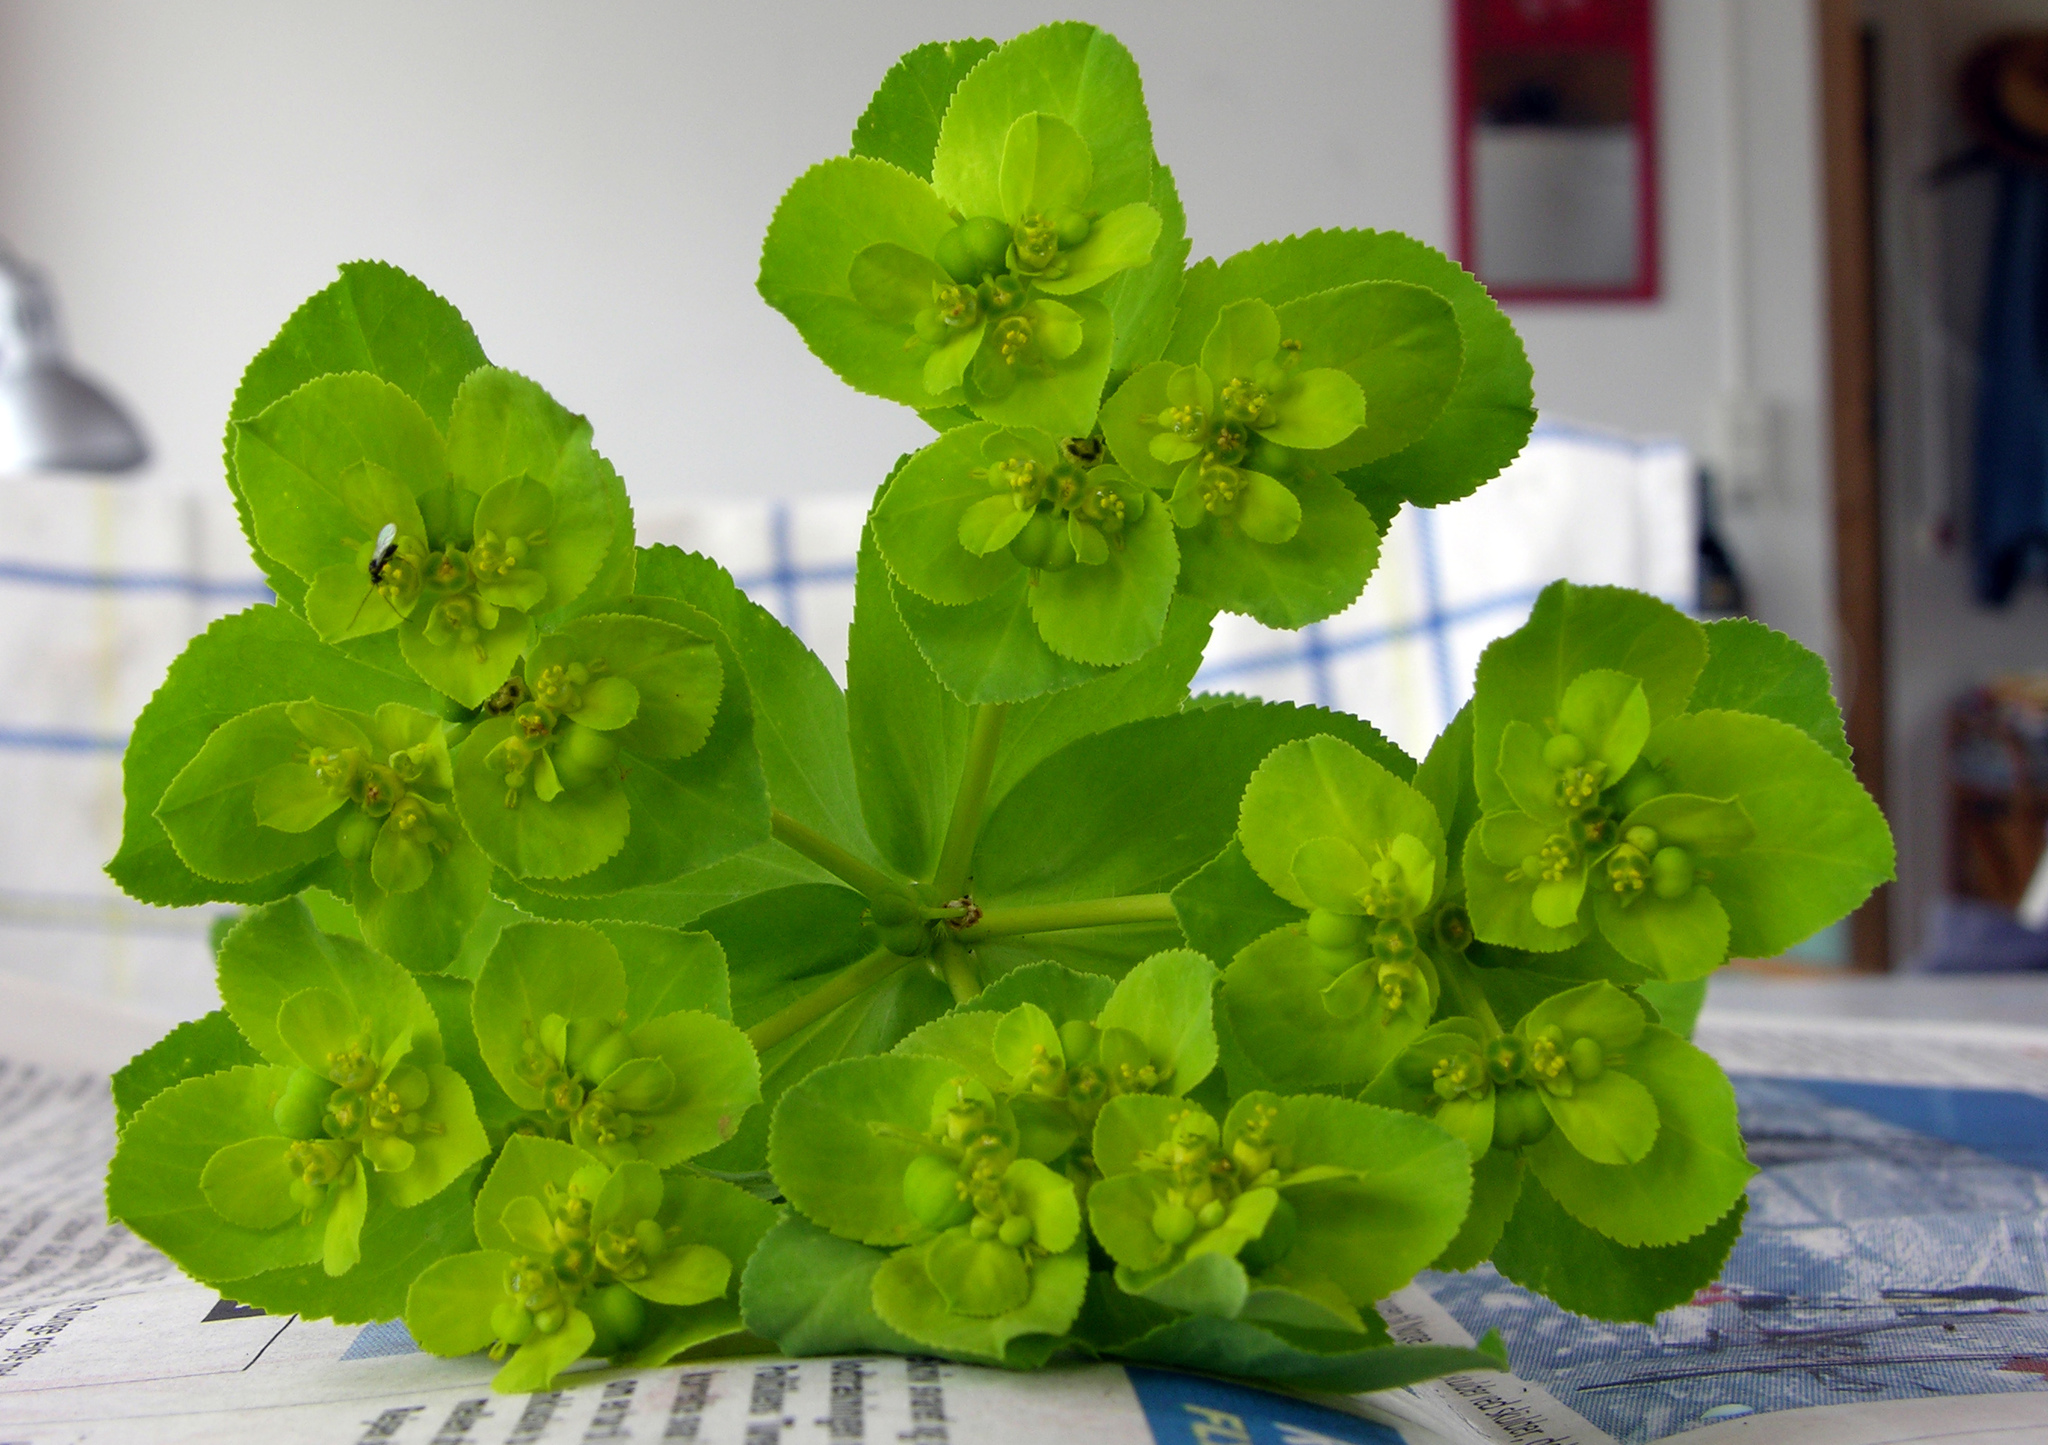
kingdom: Plantae
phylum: Tracheophyta
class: Magnoliopsida
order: Malpighiales
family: Euphorbiaceae
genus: Euphorbia
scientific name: Euphorbia helioscopia
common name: Sun spurge
